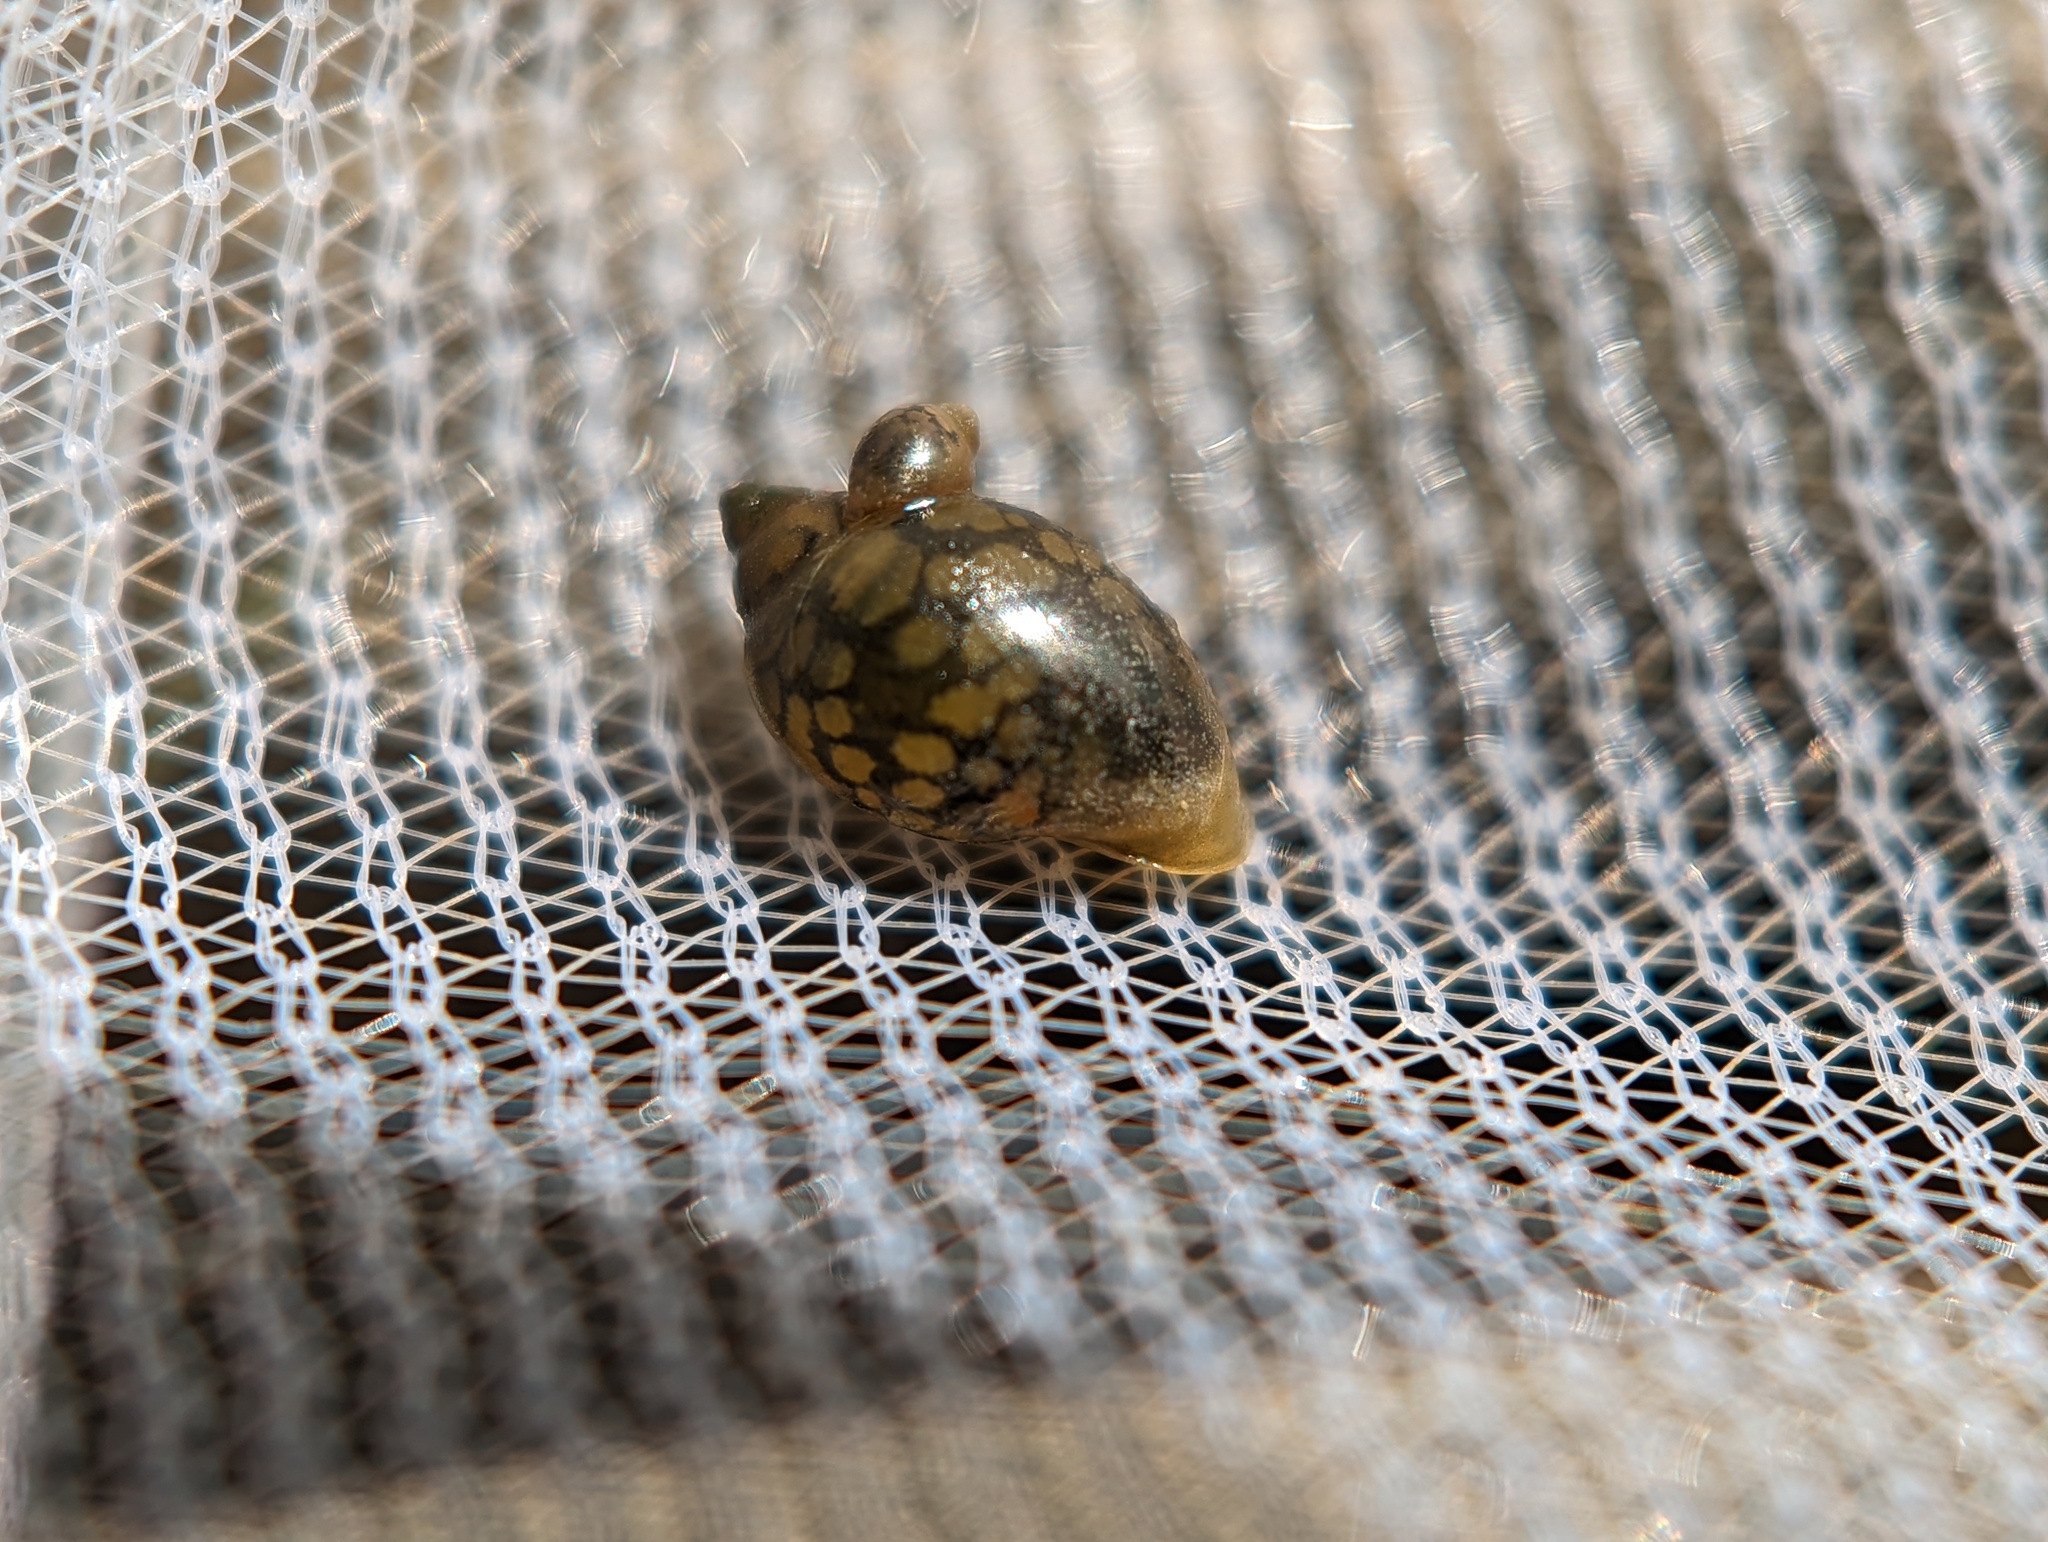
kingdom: Animalia
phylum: Mollusca
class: Gastropoda
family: Physidae
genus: Physella
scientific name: Physella acuta
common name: European physa
